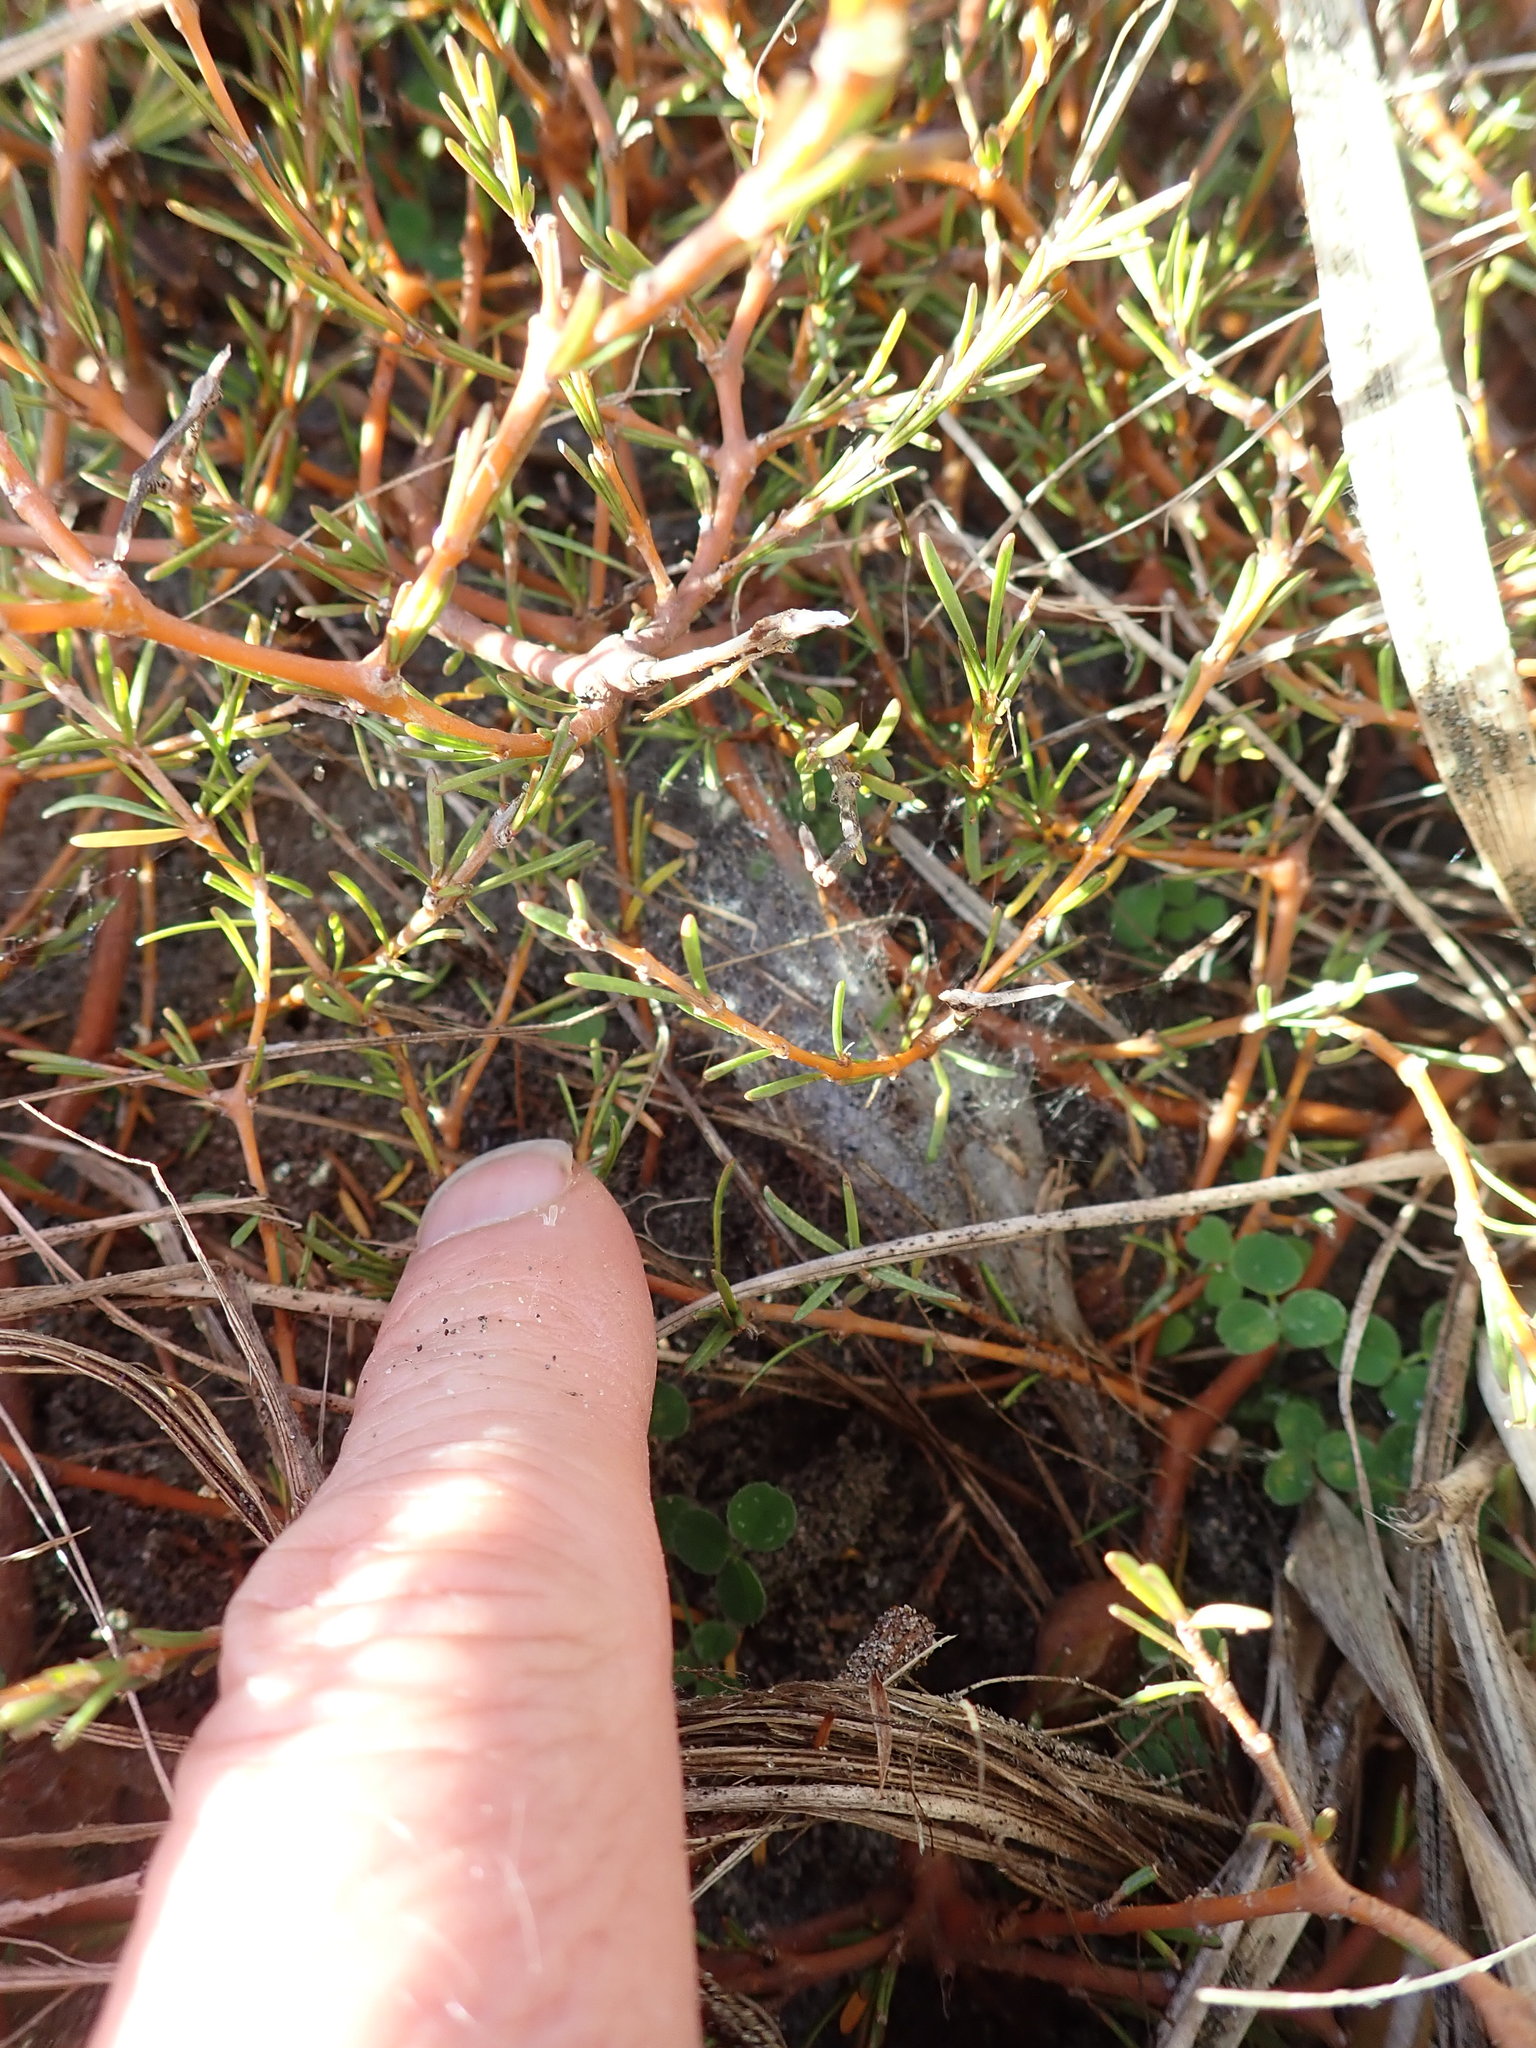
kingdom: Plantae
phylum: Tracheophyta
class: Magnoliopsida
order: Gentianales
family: Rubiaceae
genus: Coprosma
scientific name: Coprosma acerosa
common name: Sand coprosma
